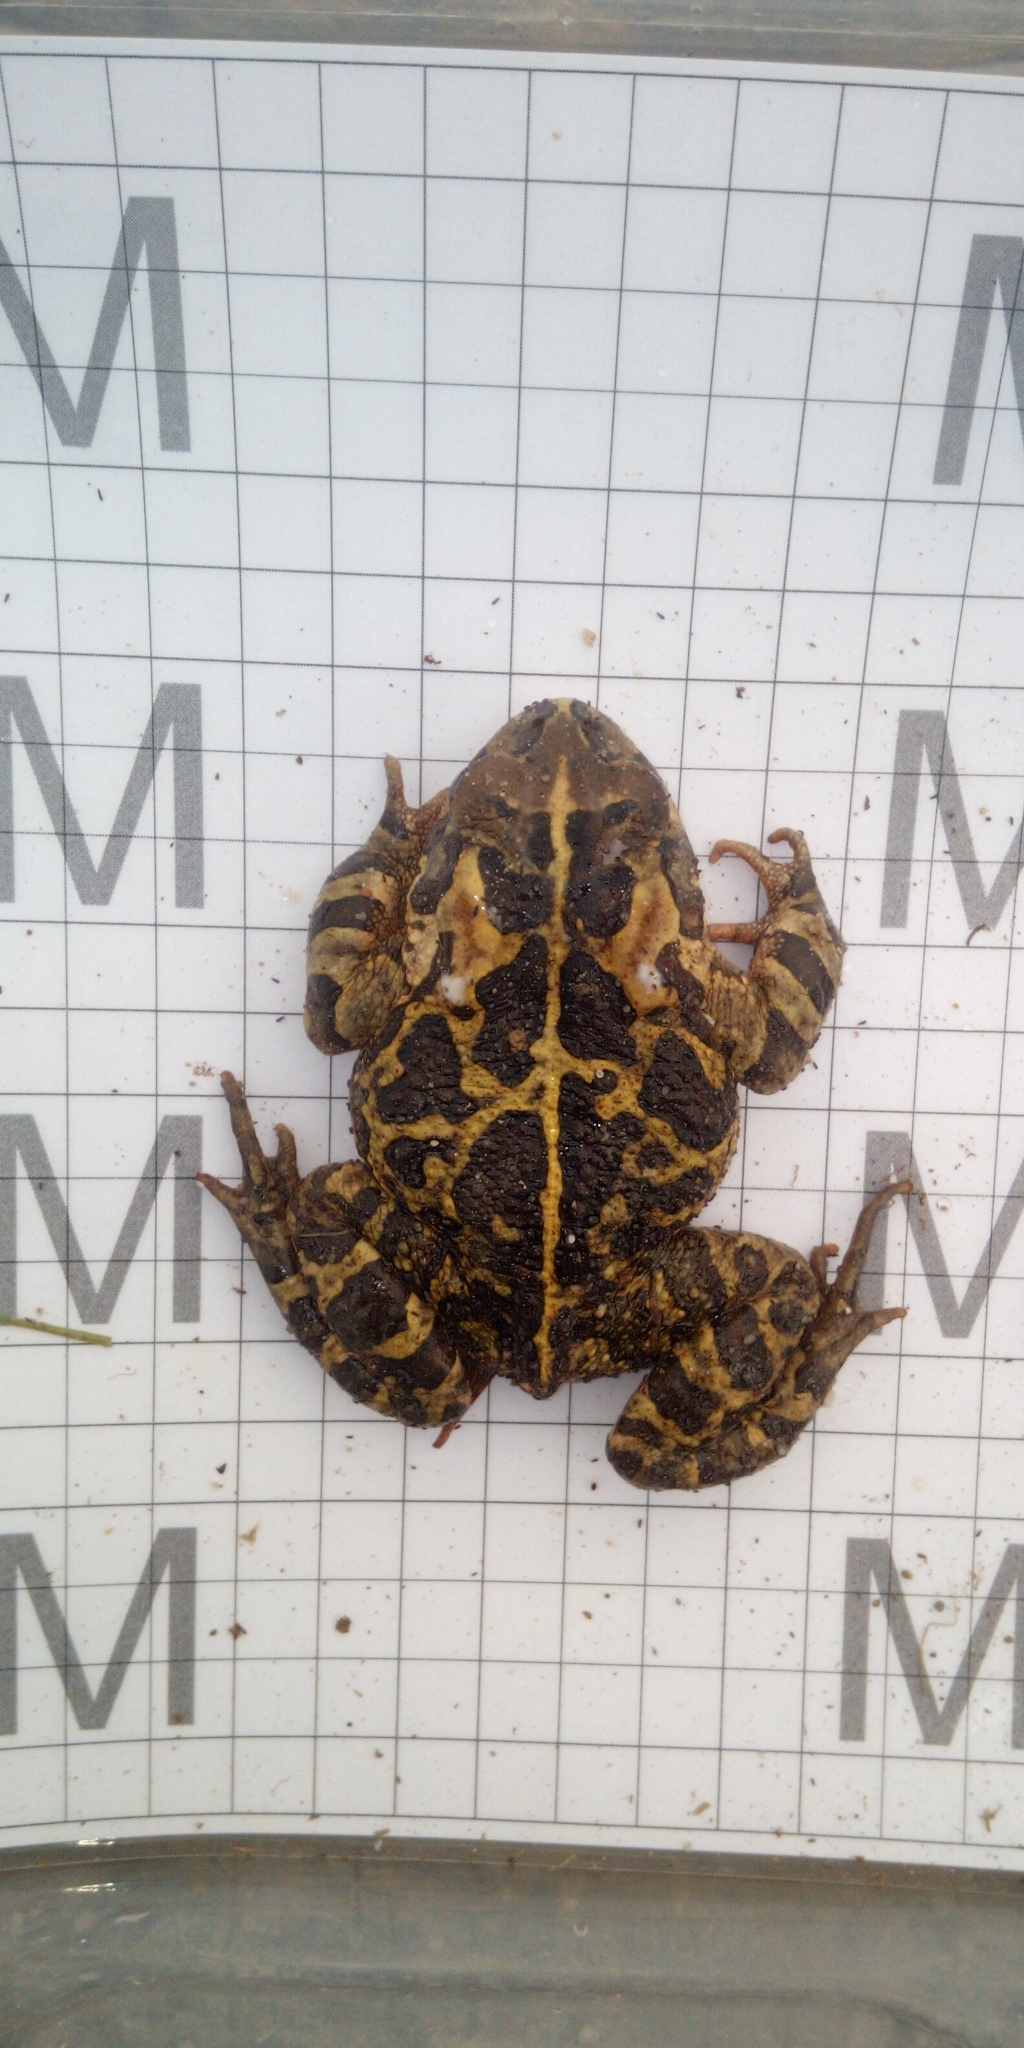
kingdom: Animalia
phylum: Chordata
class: Amphibia
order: Anura
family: Bufonidae
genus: Sclerophrys
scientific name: Sclerophrys pantherina
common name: Panther toad
